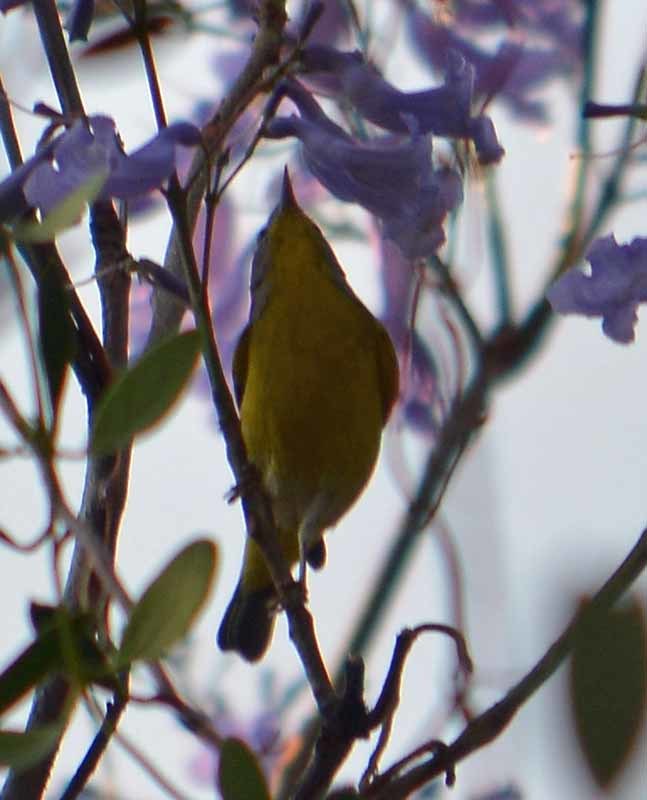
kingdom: Animalia
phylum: Chordata
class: Aves
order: Passeriformes
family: Parulidae
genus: Leiothlypis
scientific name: Leiothlypis ruficapilla
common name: Nashville warbler
